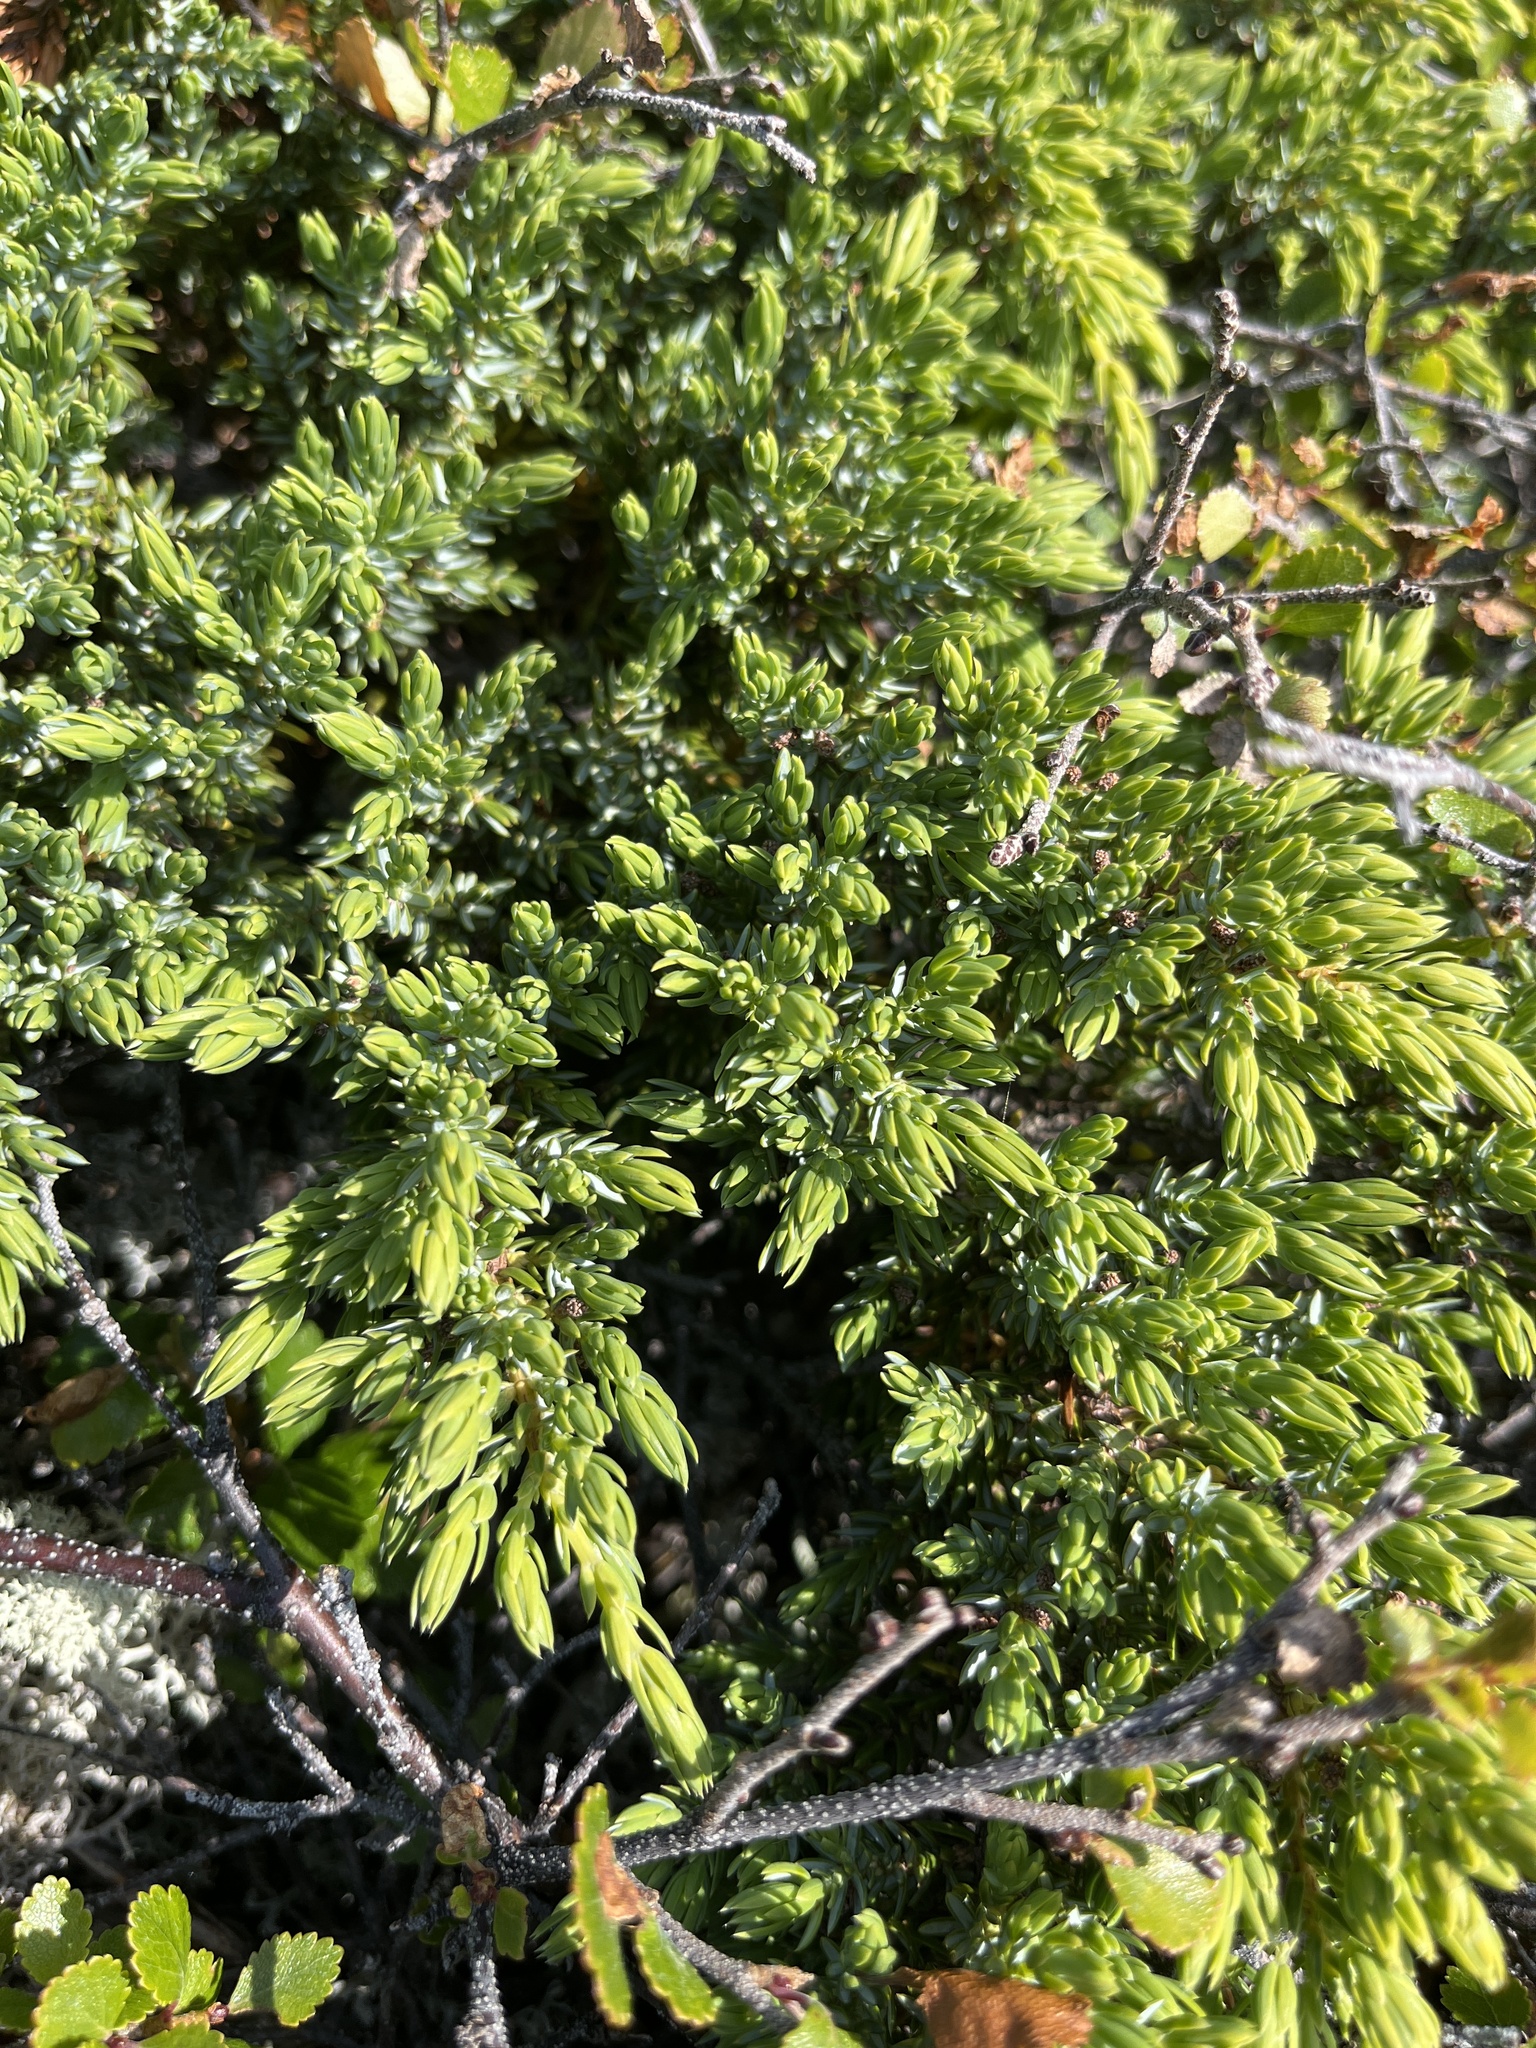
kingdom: Plantae
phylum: Tracheophyta
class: Pinopsida
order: Pinales
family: Cupressaceae
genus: Juniperus
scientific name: Juniperus communis
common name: Common juniper
